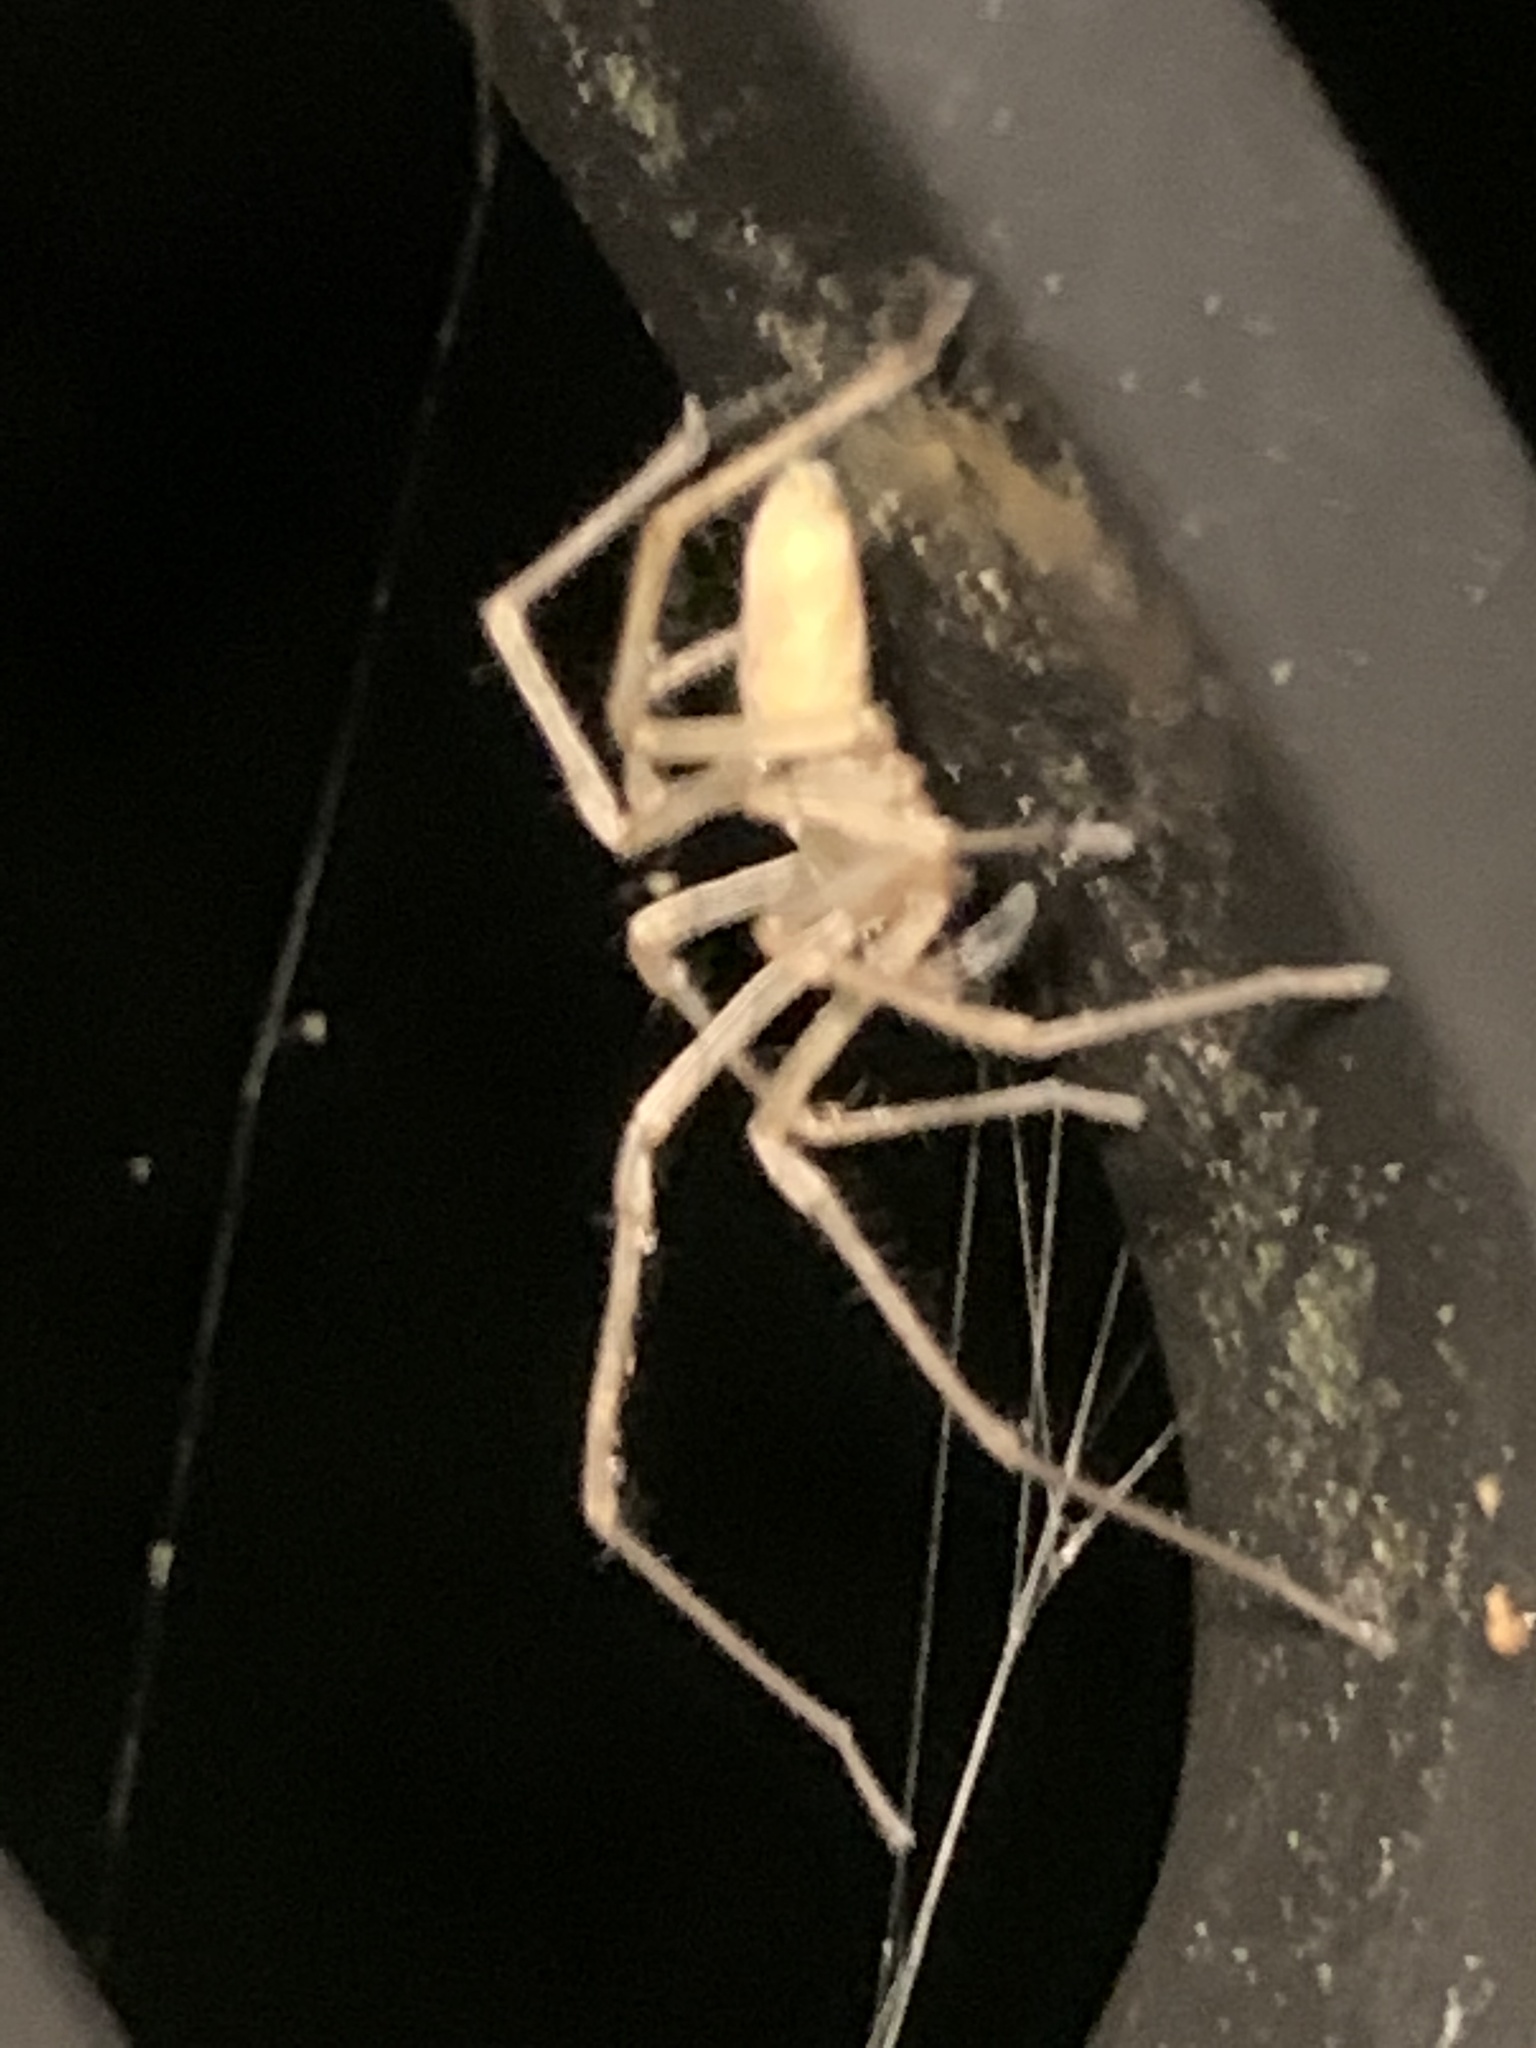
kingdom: Animalia
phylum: Arthropoda
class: Arachnida
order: Araneae
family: Cheiracanthiidae
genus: Cheiracanthium
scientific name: Cheiracanthium mildei
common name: Northern yellow sac spider
